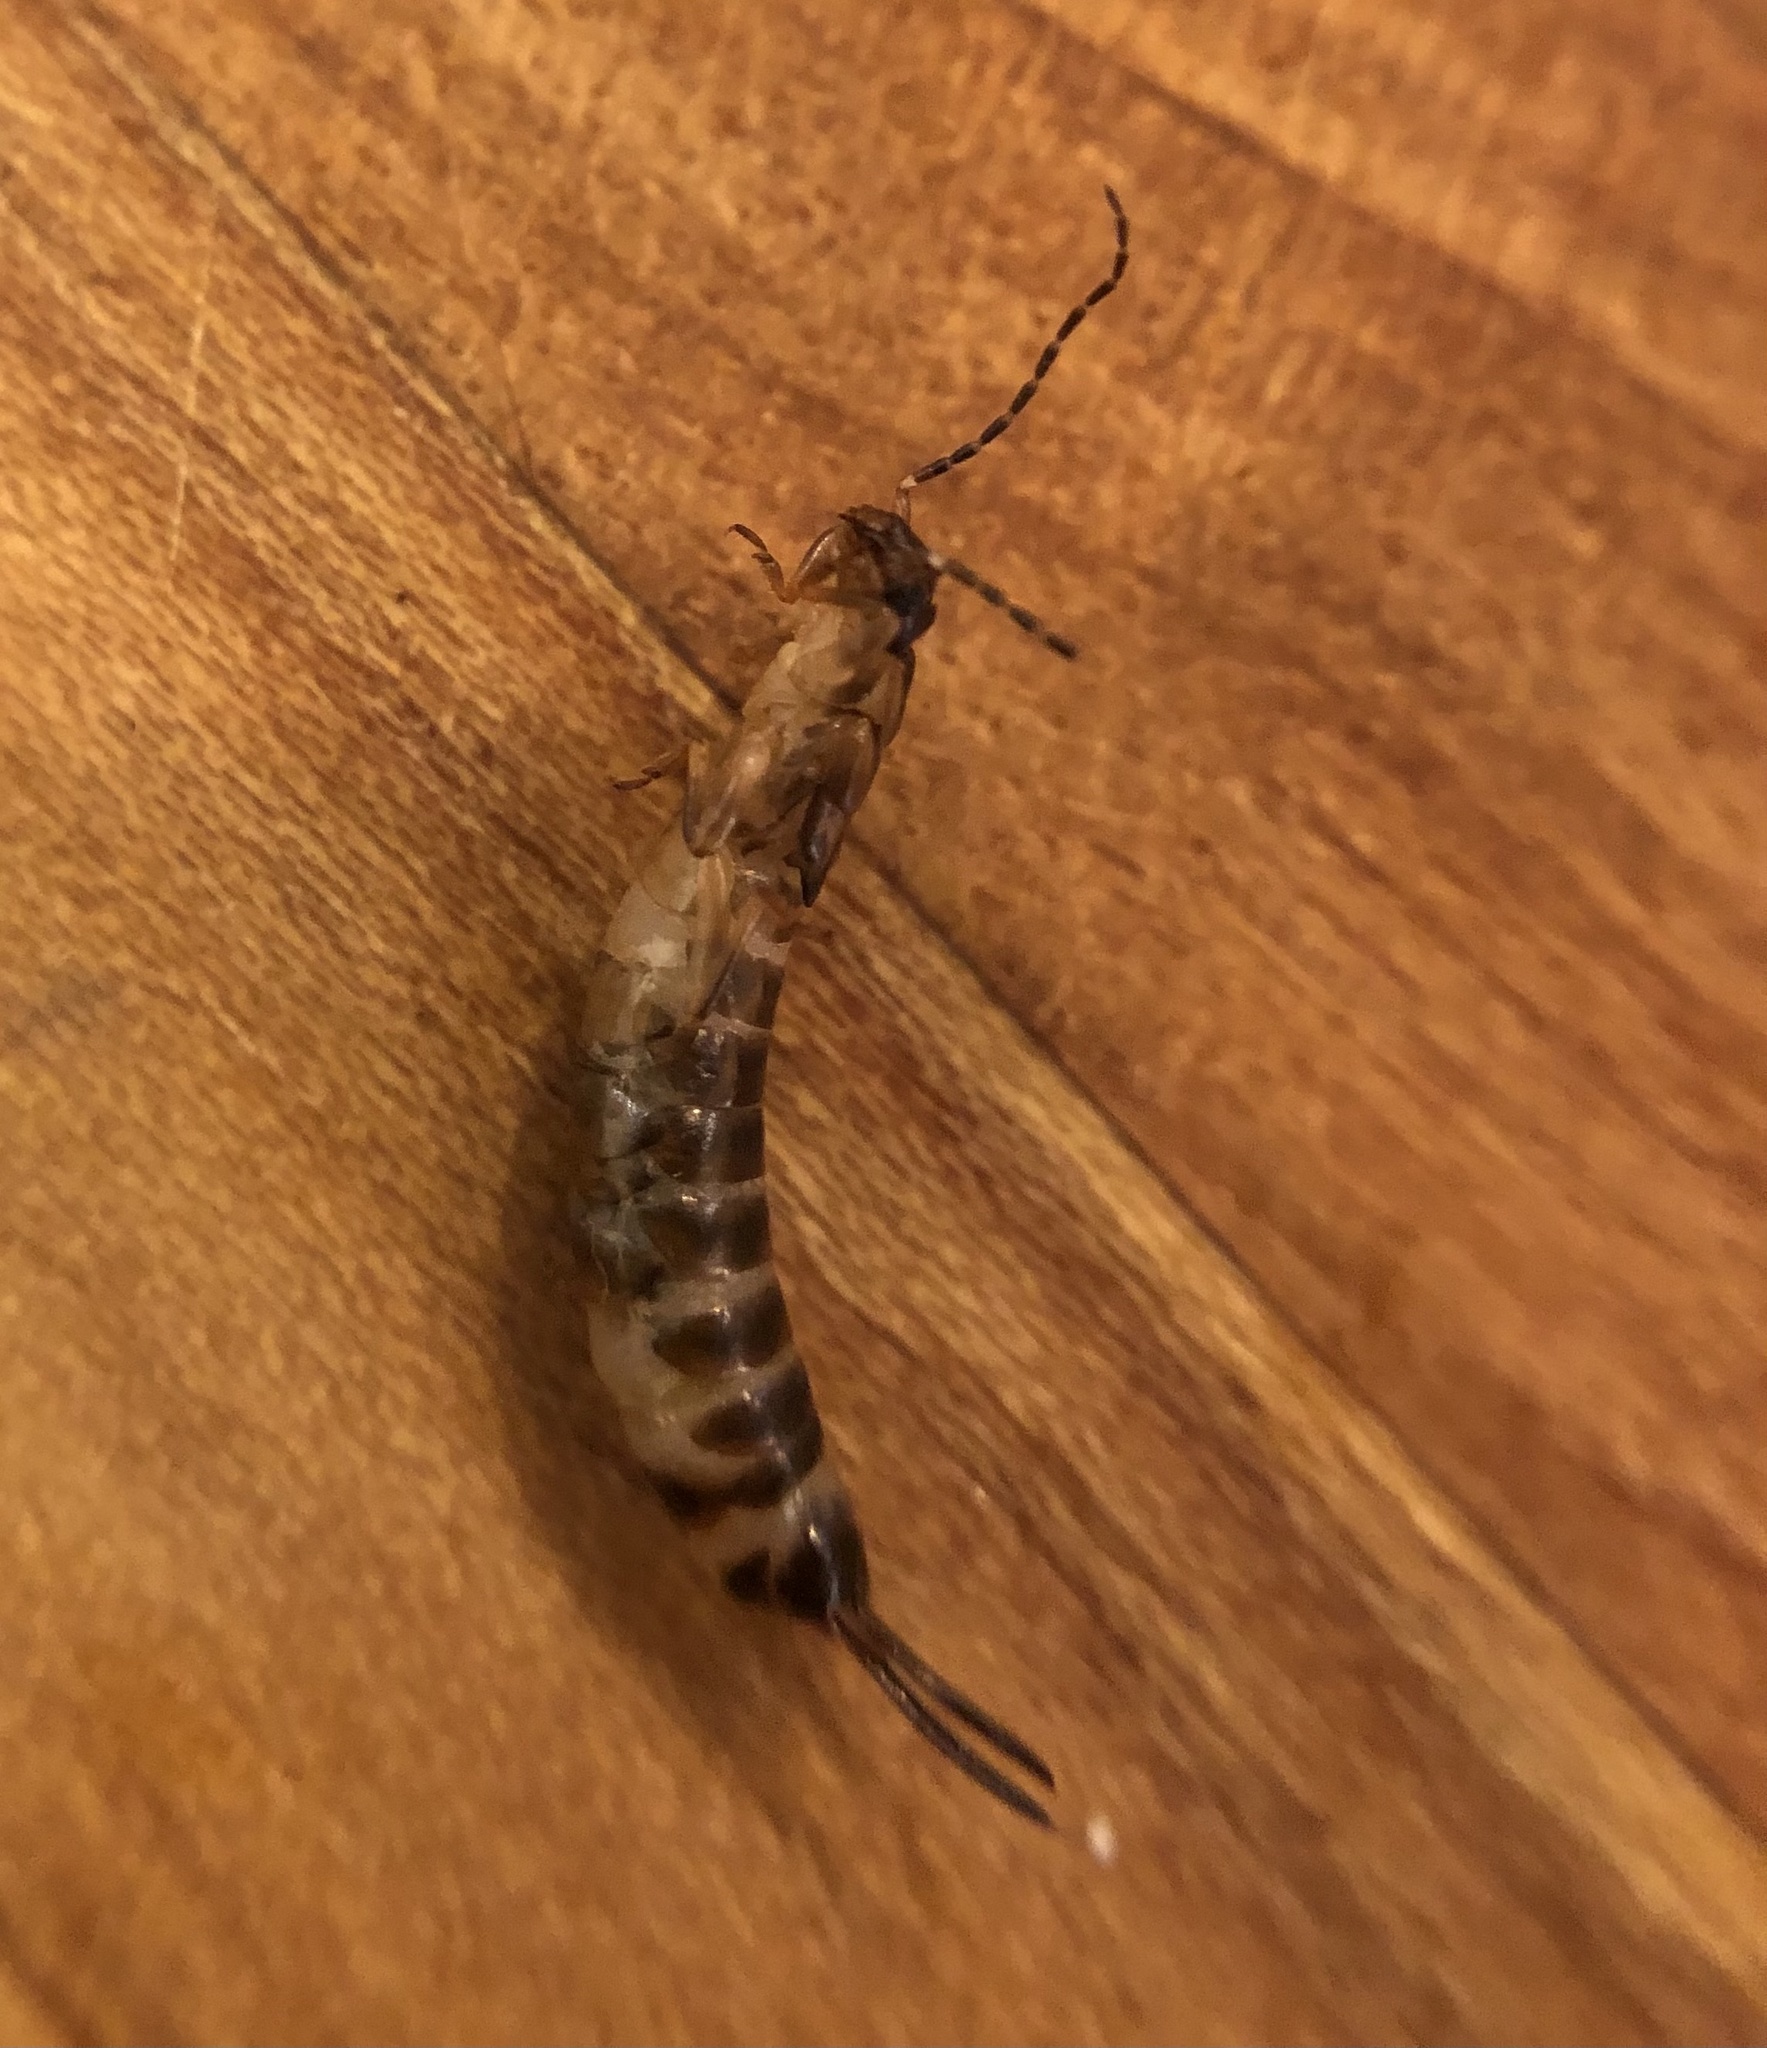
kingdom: Animalia
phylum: Arthropoda
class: Insecta
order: Dermaptera
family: Forficulidae
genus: Forficula
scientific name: Forficula
